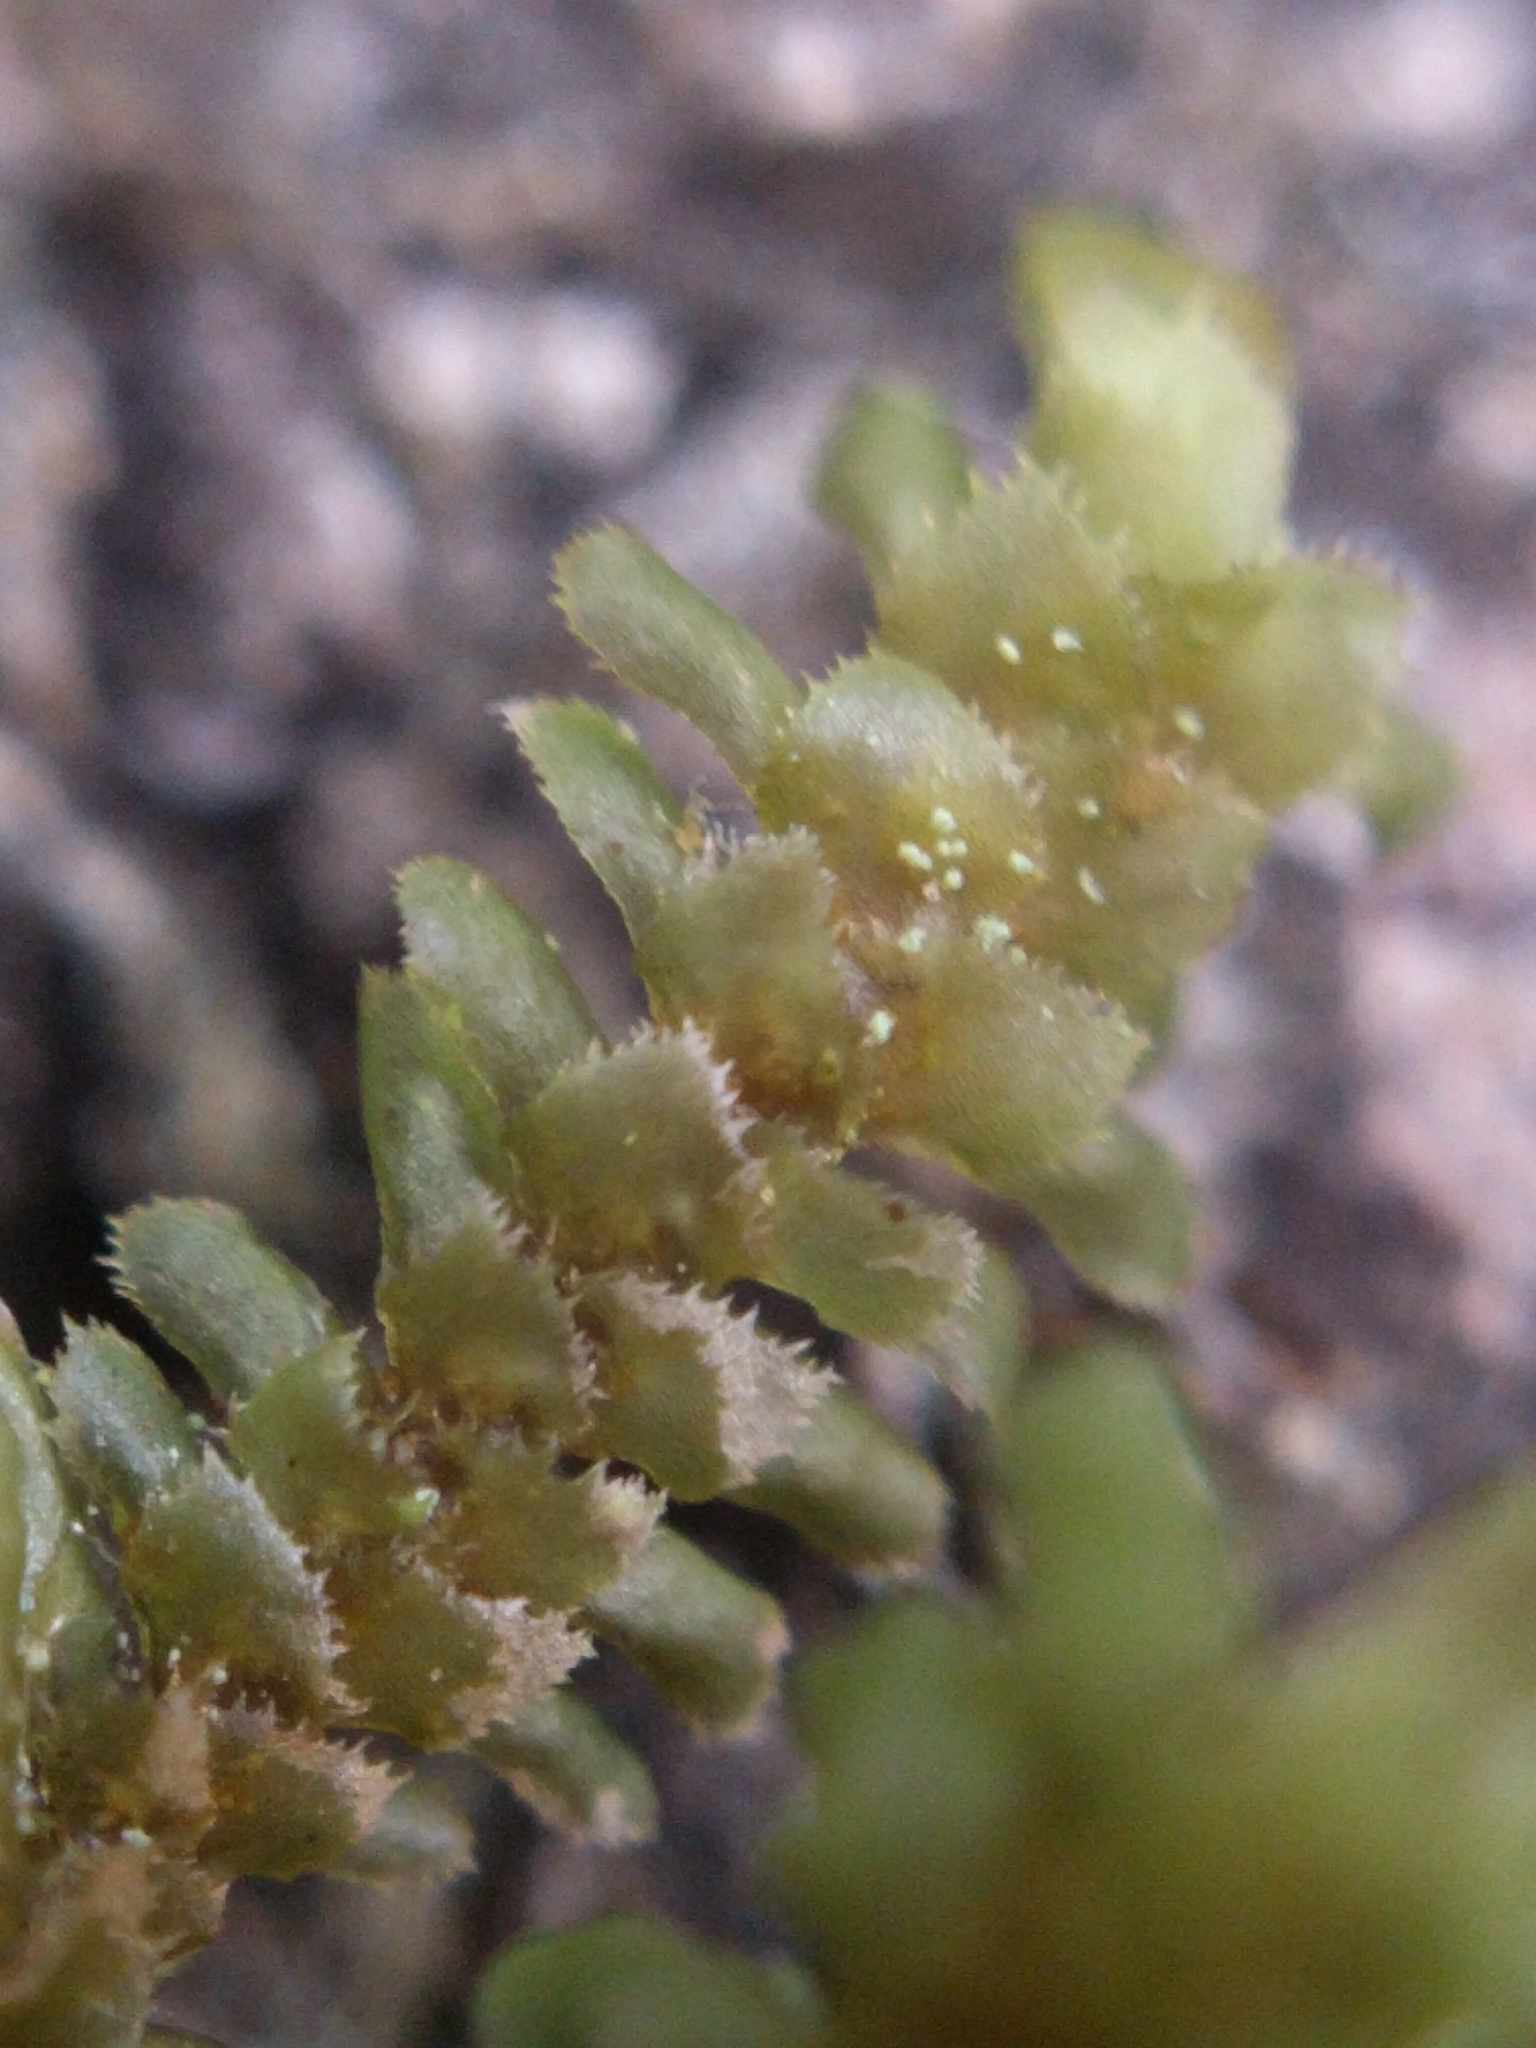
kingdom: Plantae
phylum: Marchantiophyta
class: Jungermanniopsida
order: Jungermanniales
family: Scapaniaceae
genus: Scapania
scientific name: Scapania bolanderi
